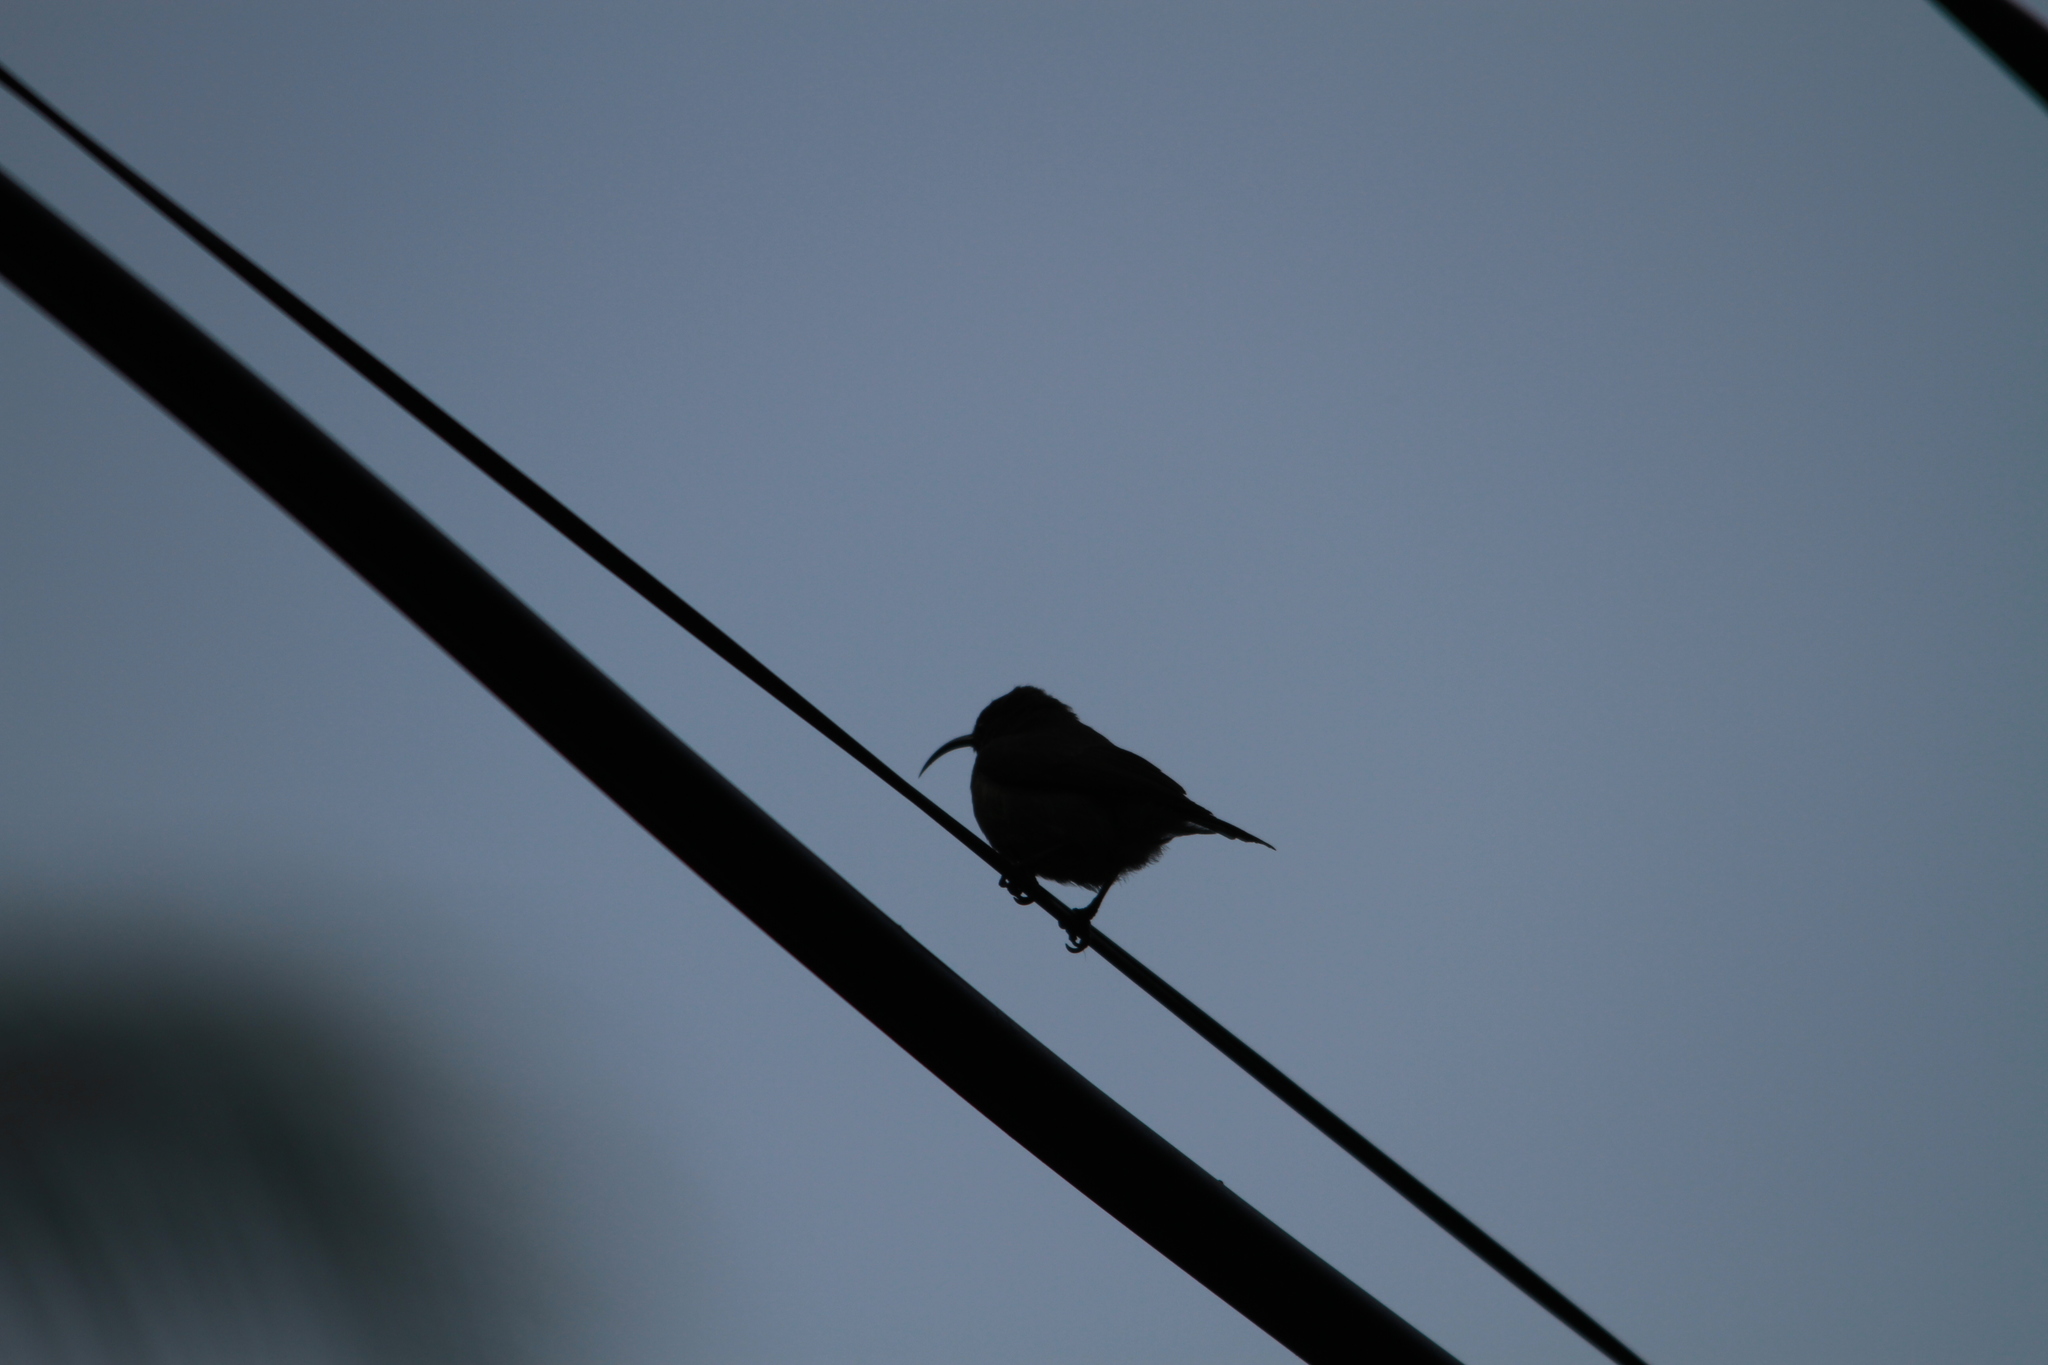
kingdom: Animalia
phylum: Chordata
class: Aves
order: Passeriformes
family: Nectariniidae
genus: Cinnyris
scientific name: Cinnyris dussumieri
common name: Seychelles sunbird
